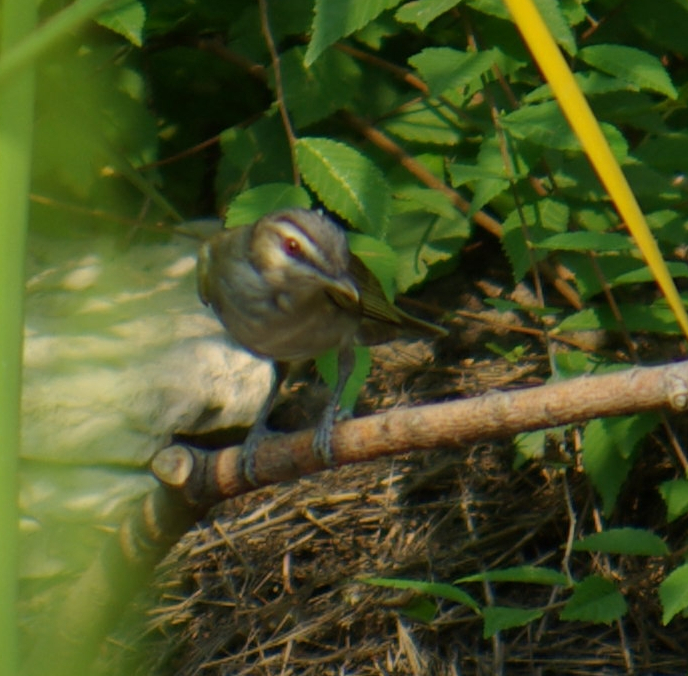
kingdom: Animalia
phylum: Chordata
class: Aves
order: Passeriformes
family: Vireonidae
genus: Vireo
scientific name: Vireo olivaceus
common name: Red-eyed vireo
